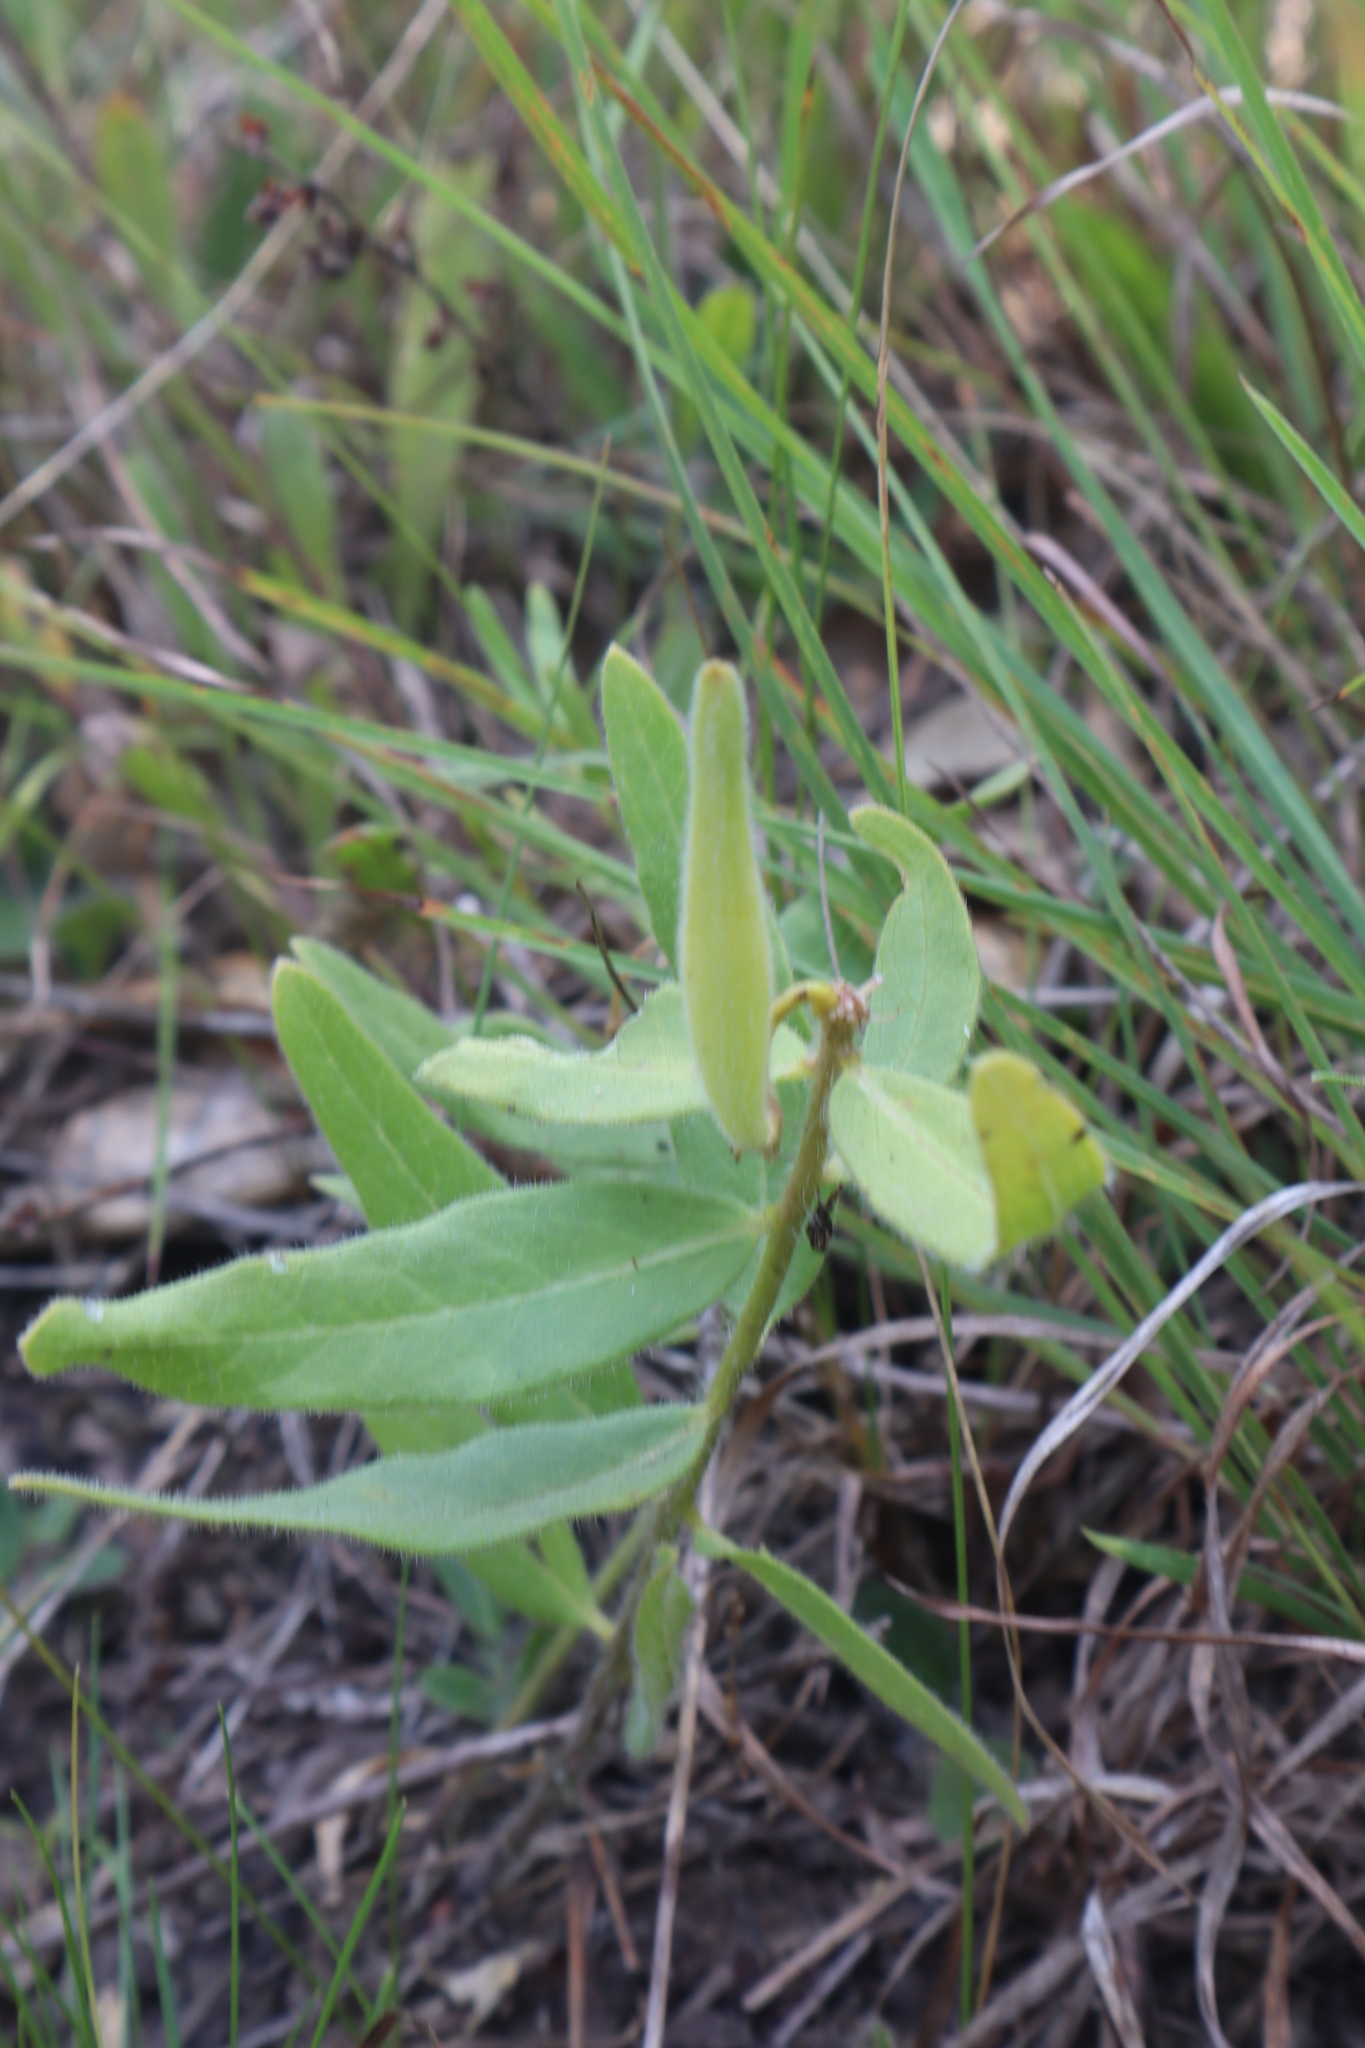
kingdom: Plantae
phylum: Tracheophyta
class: Magnoliopsida
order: Gentianales
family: Apocynaceae
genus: Asclepias
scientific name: Asclepias lanuginosa
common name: Side-cluster milkweed
